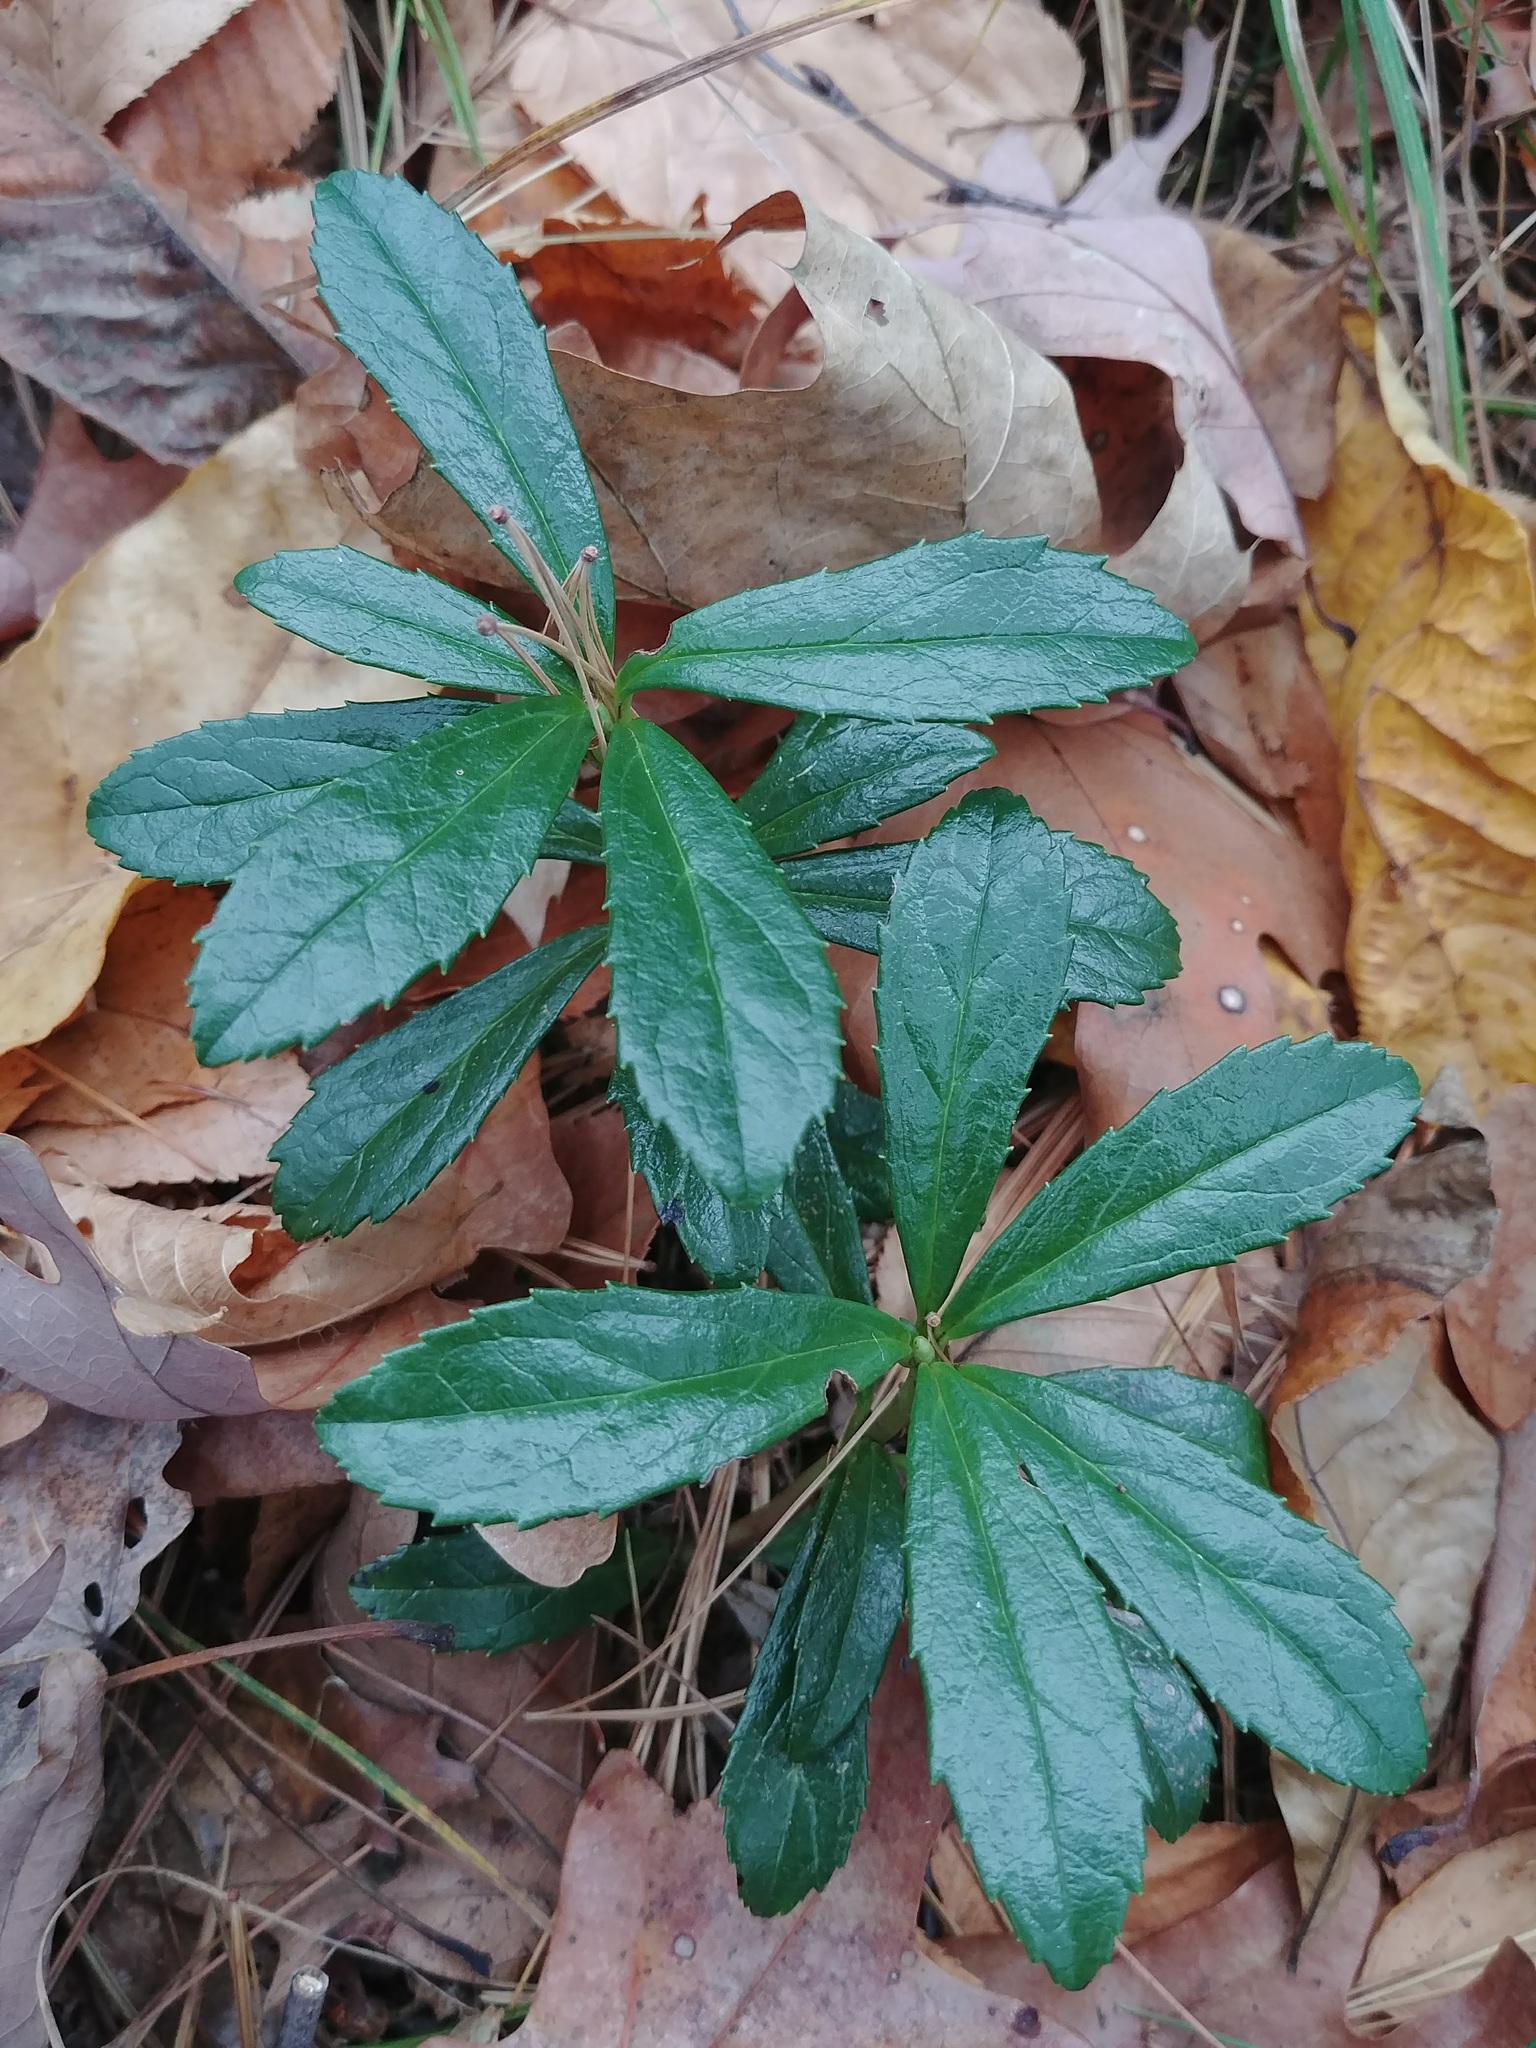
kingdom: Plantae
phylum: Tracheophyta
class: Magnoliopsida
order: Ericales
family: Ericaceae
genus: Chimaphila
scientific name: Chimaphila umbellata
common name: Pipsissewa
